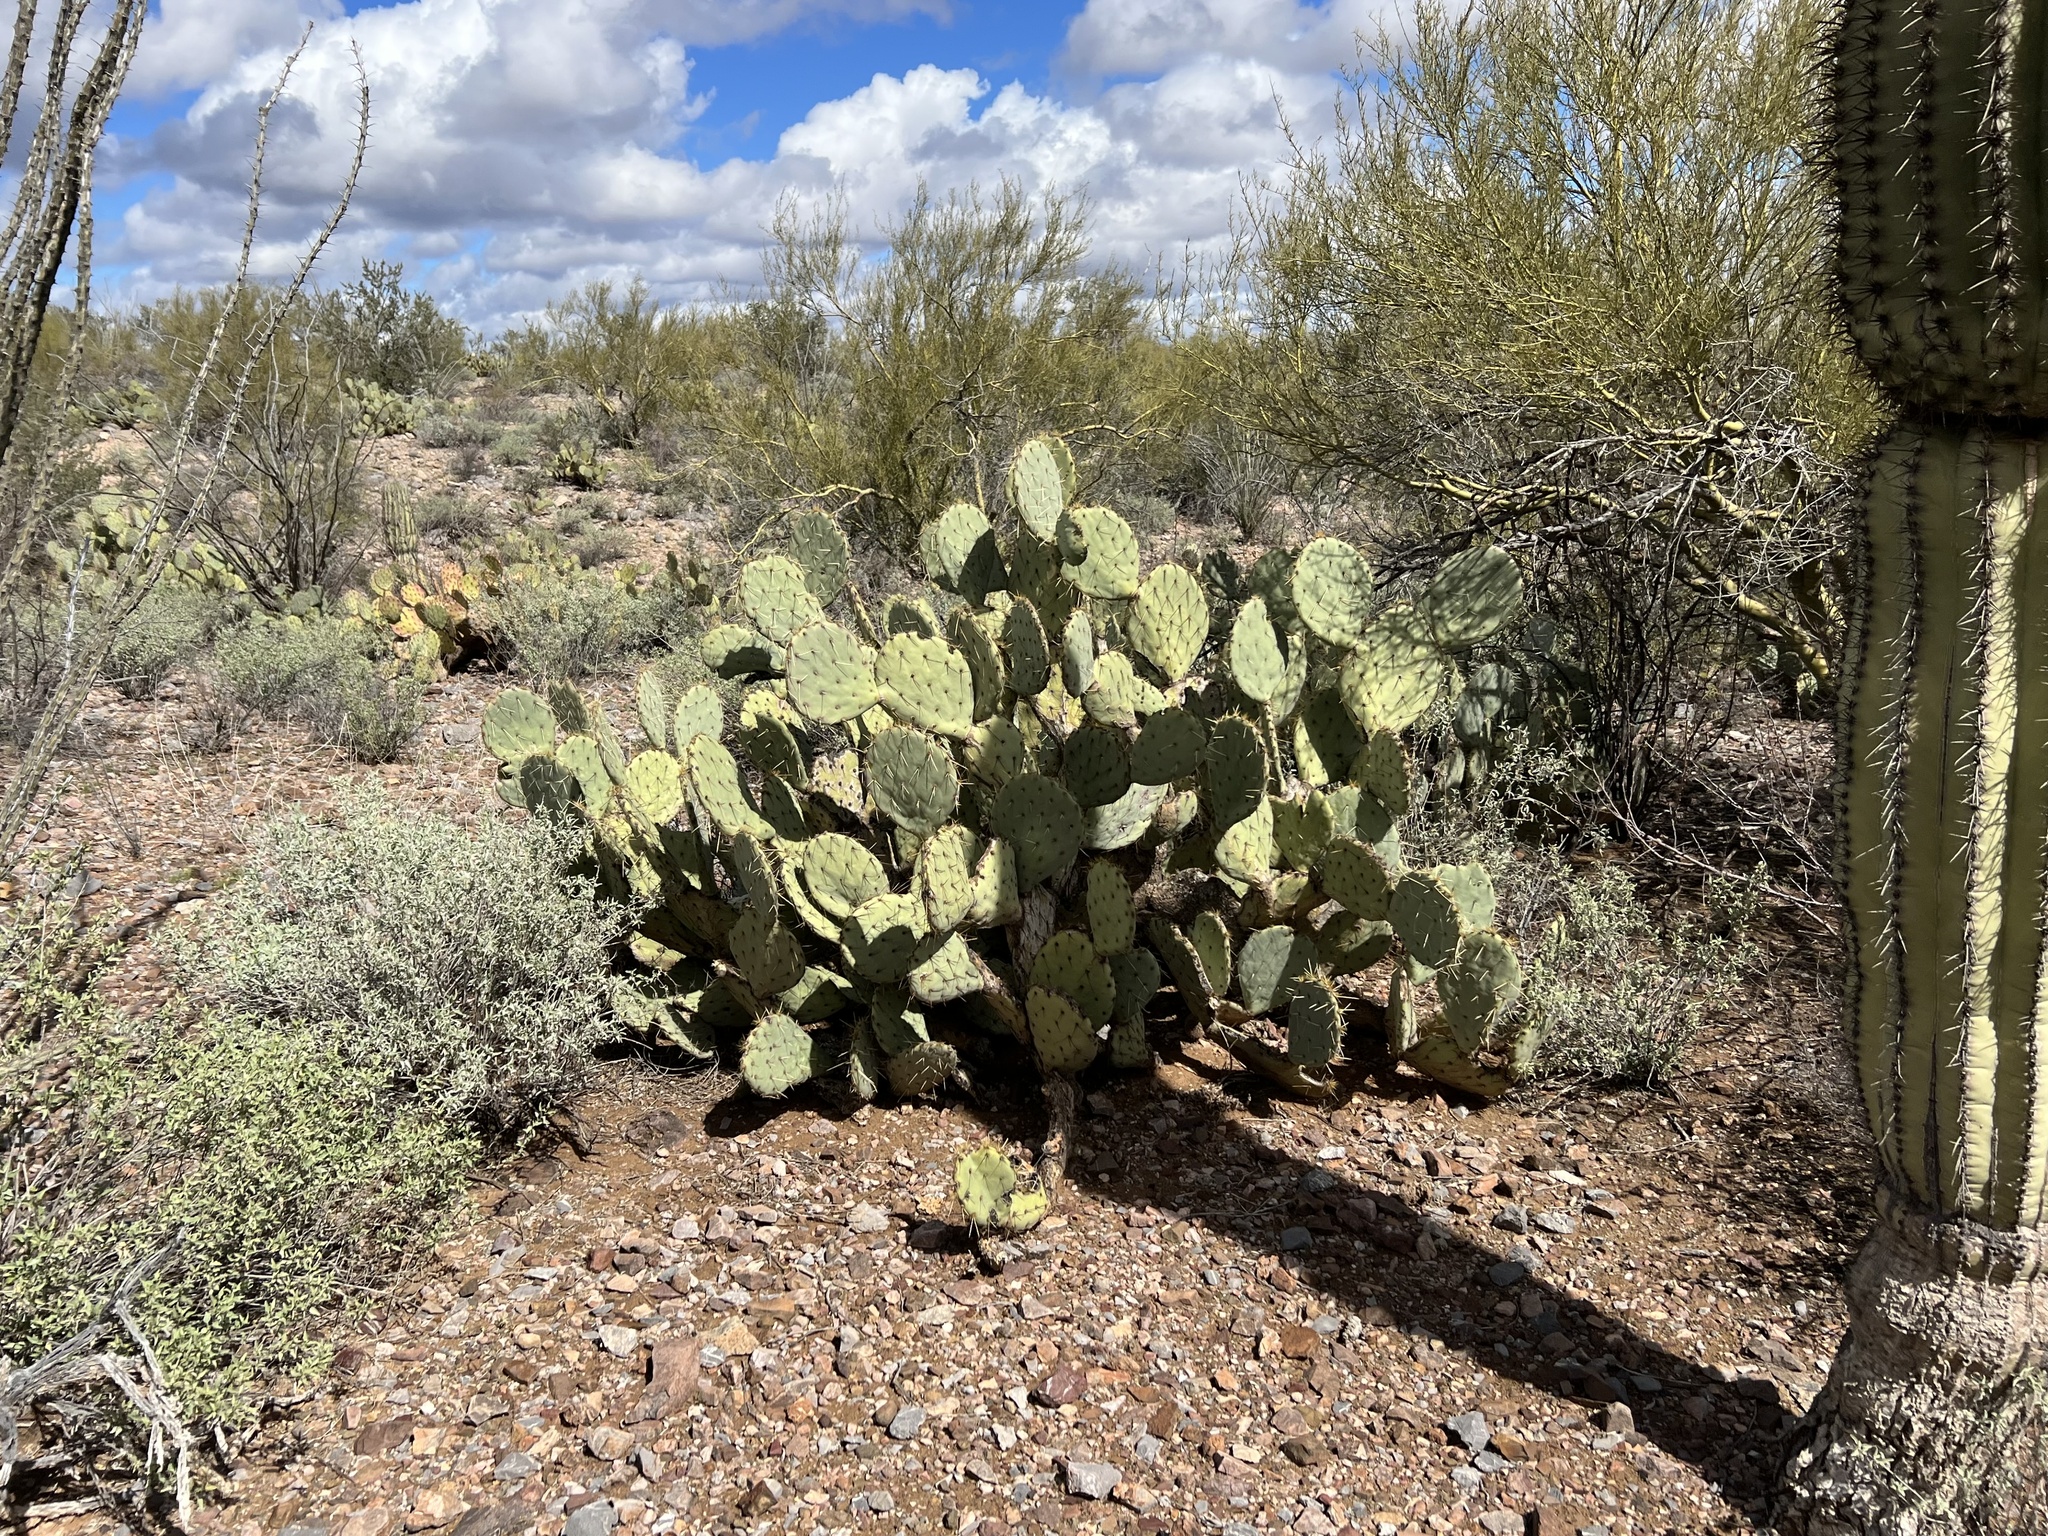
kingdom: Plantae
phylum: Tracheophyta
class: Magnoliopsida
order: Caryophyllales
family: Cactaceae
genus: Opuntia
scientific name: Opuntia engelmannii
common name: Cactus-apple
